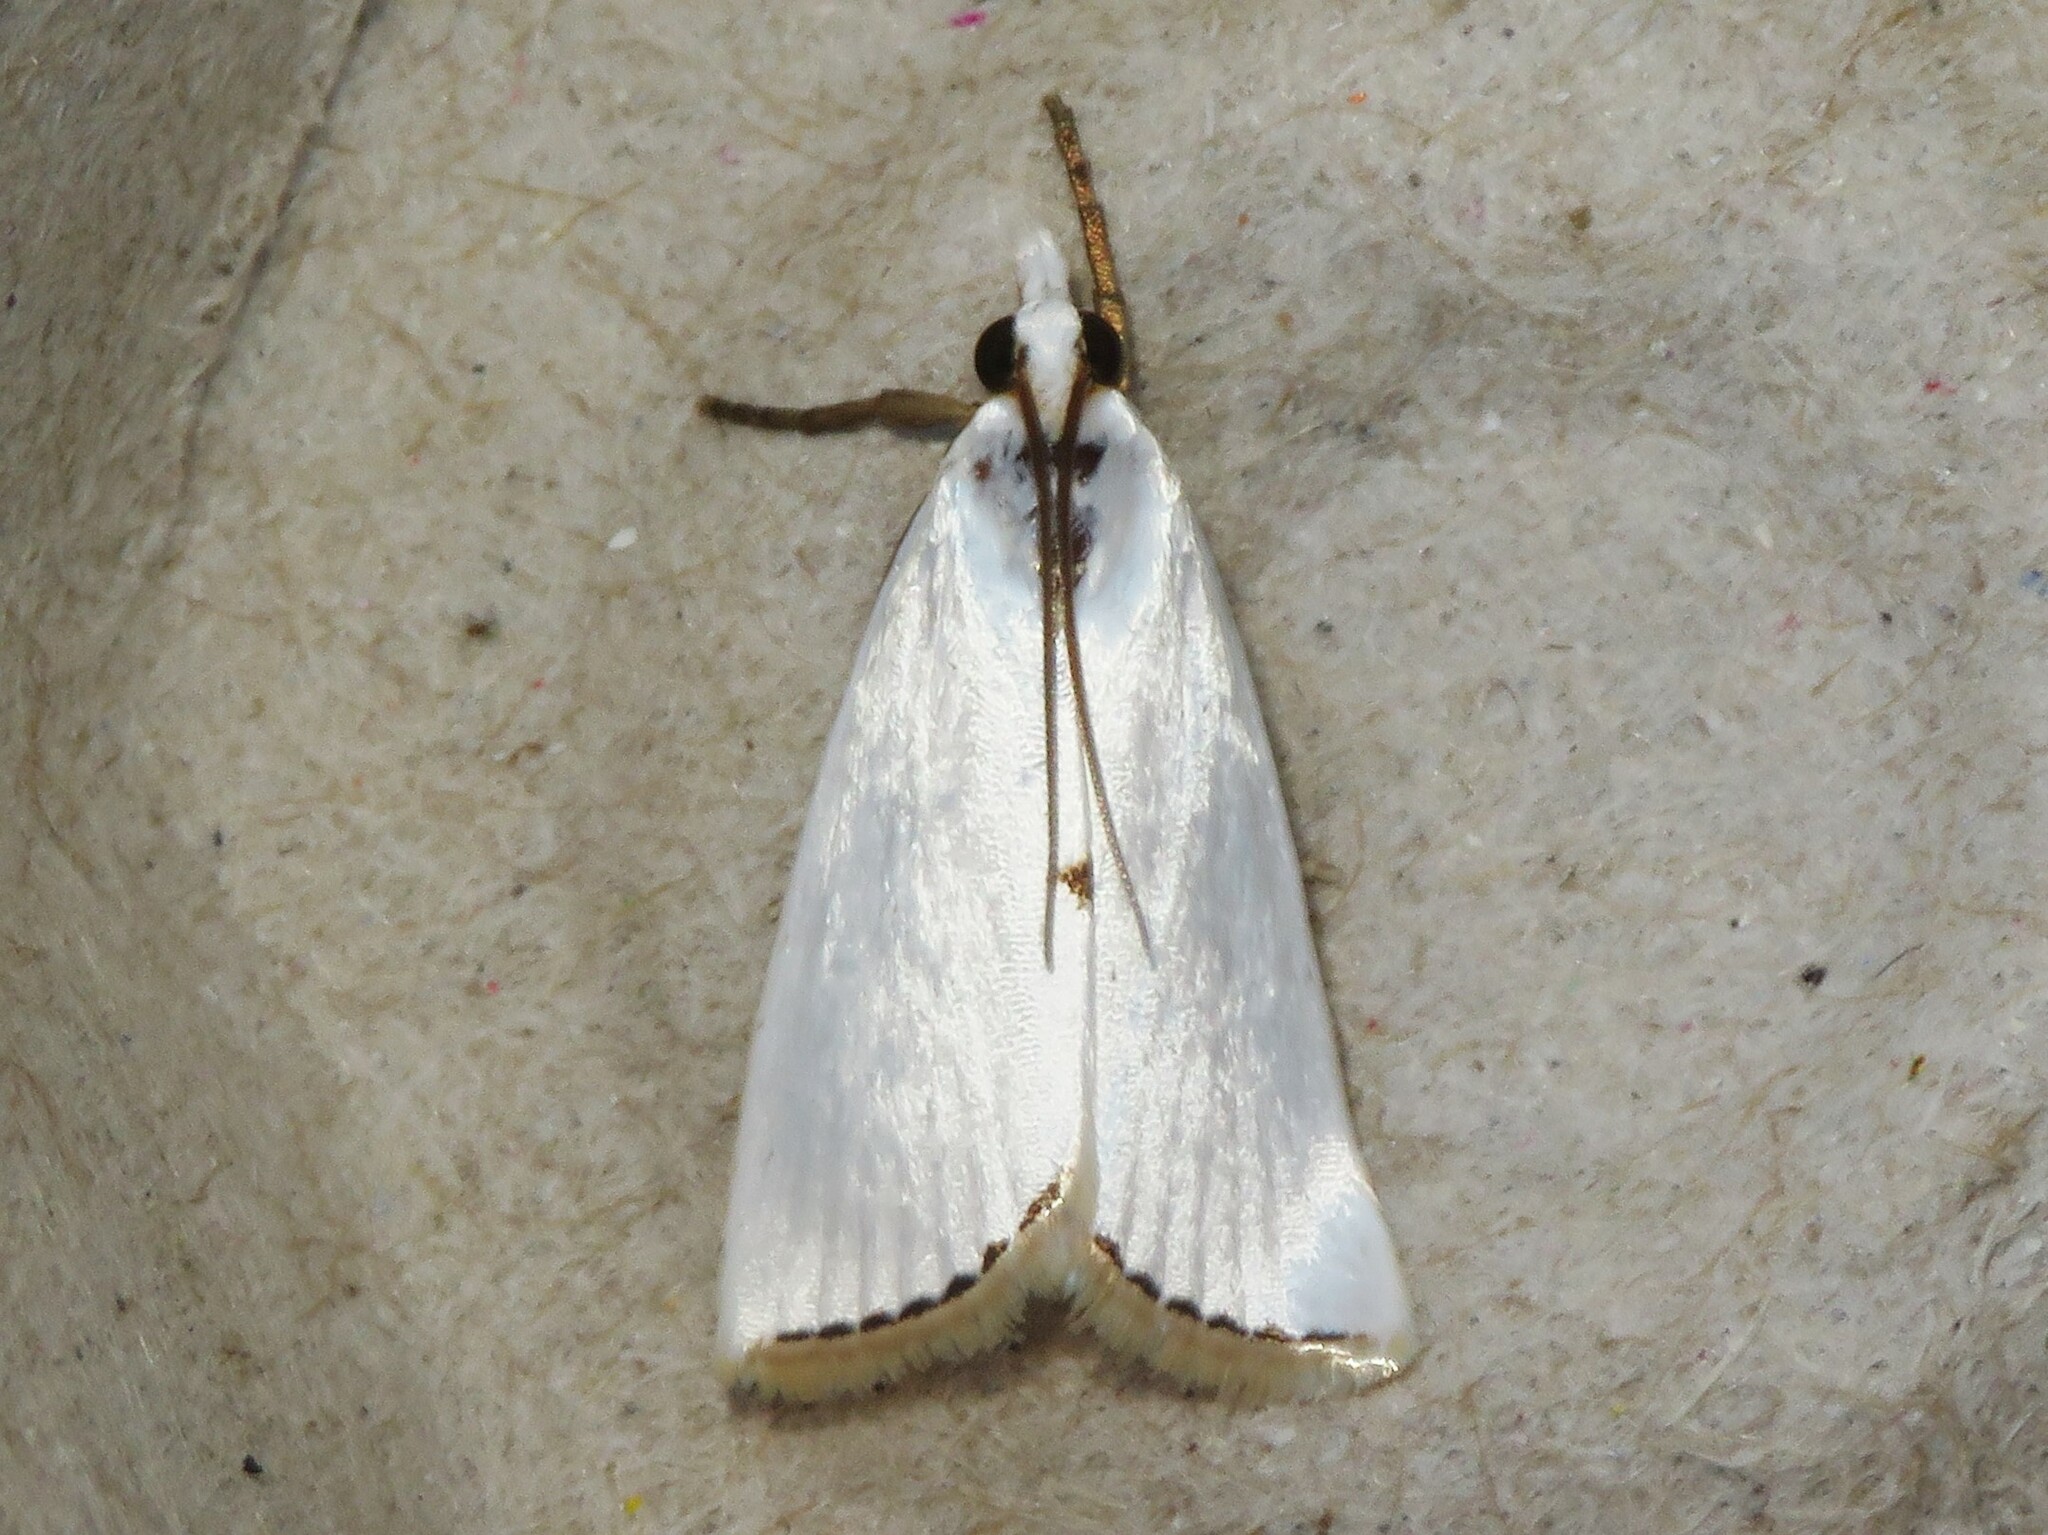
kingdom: Animalia
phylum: Arthropoda
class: Insecta
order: Lepidoptera
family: Crambidae
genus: Argyria
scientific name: Argyria nivalis
